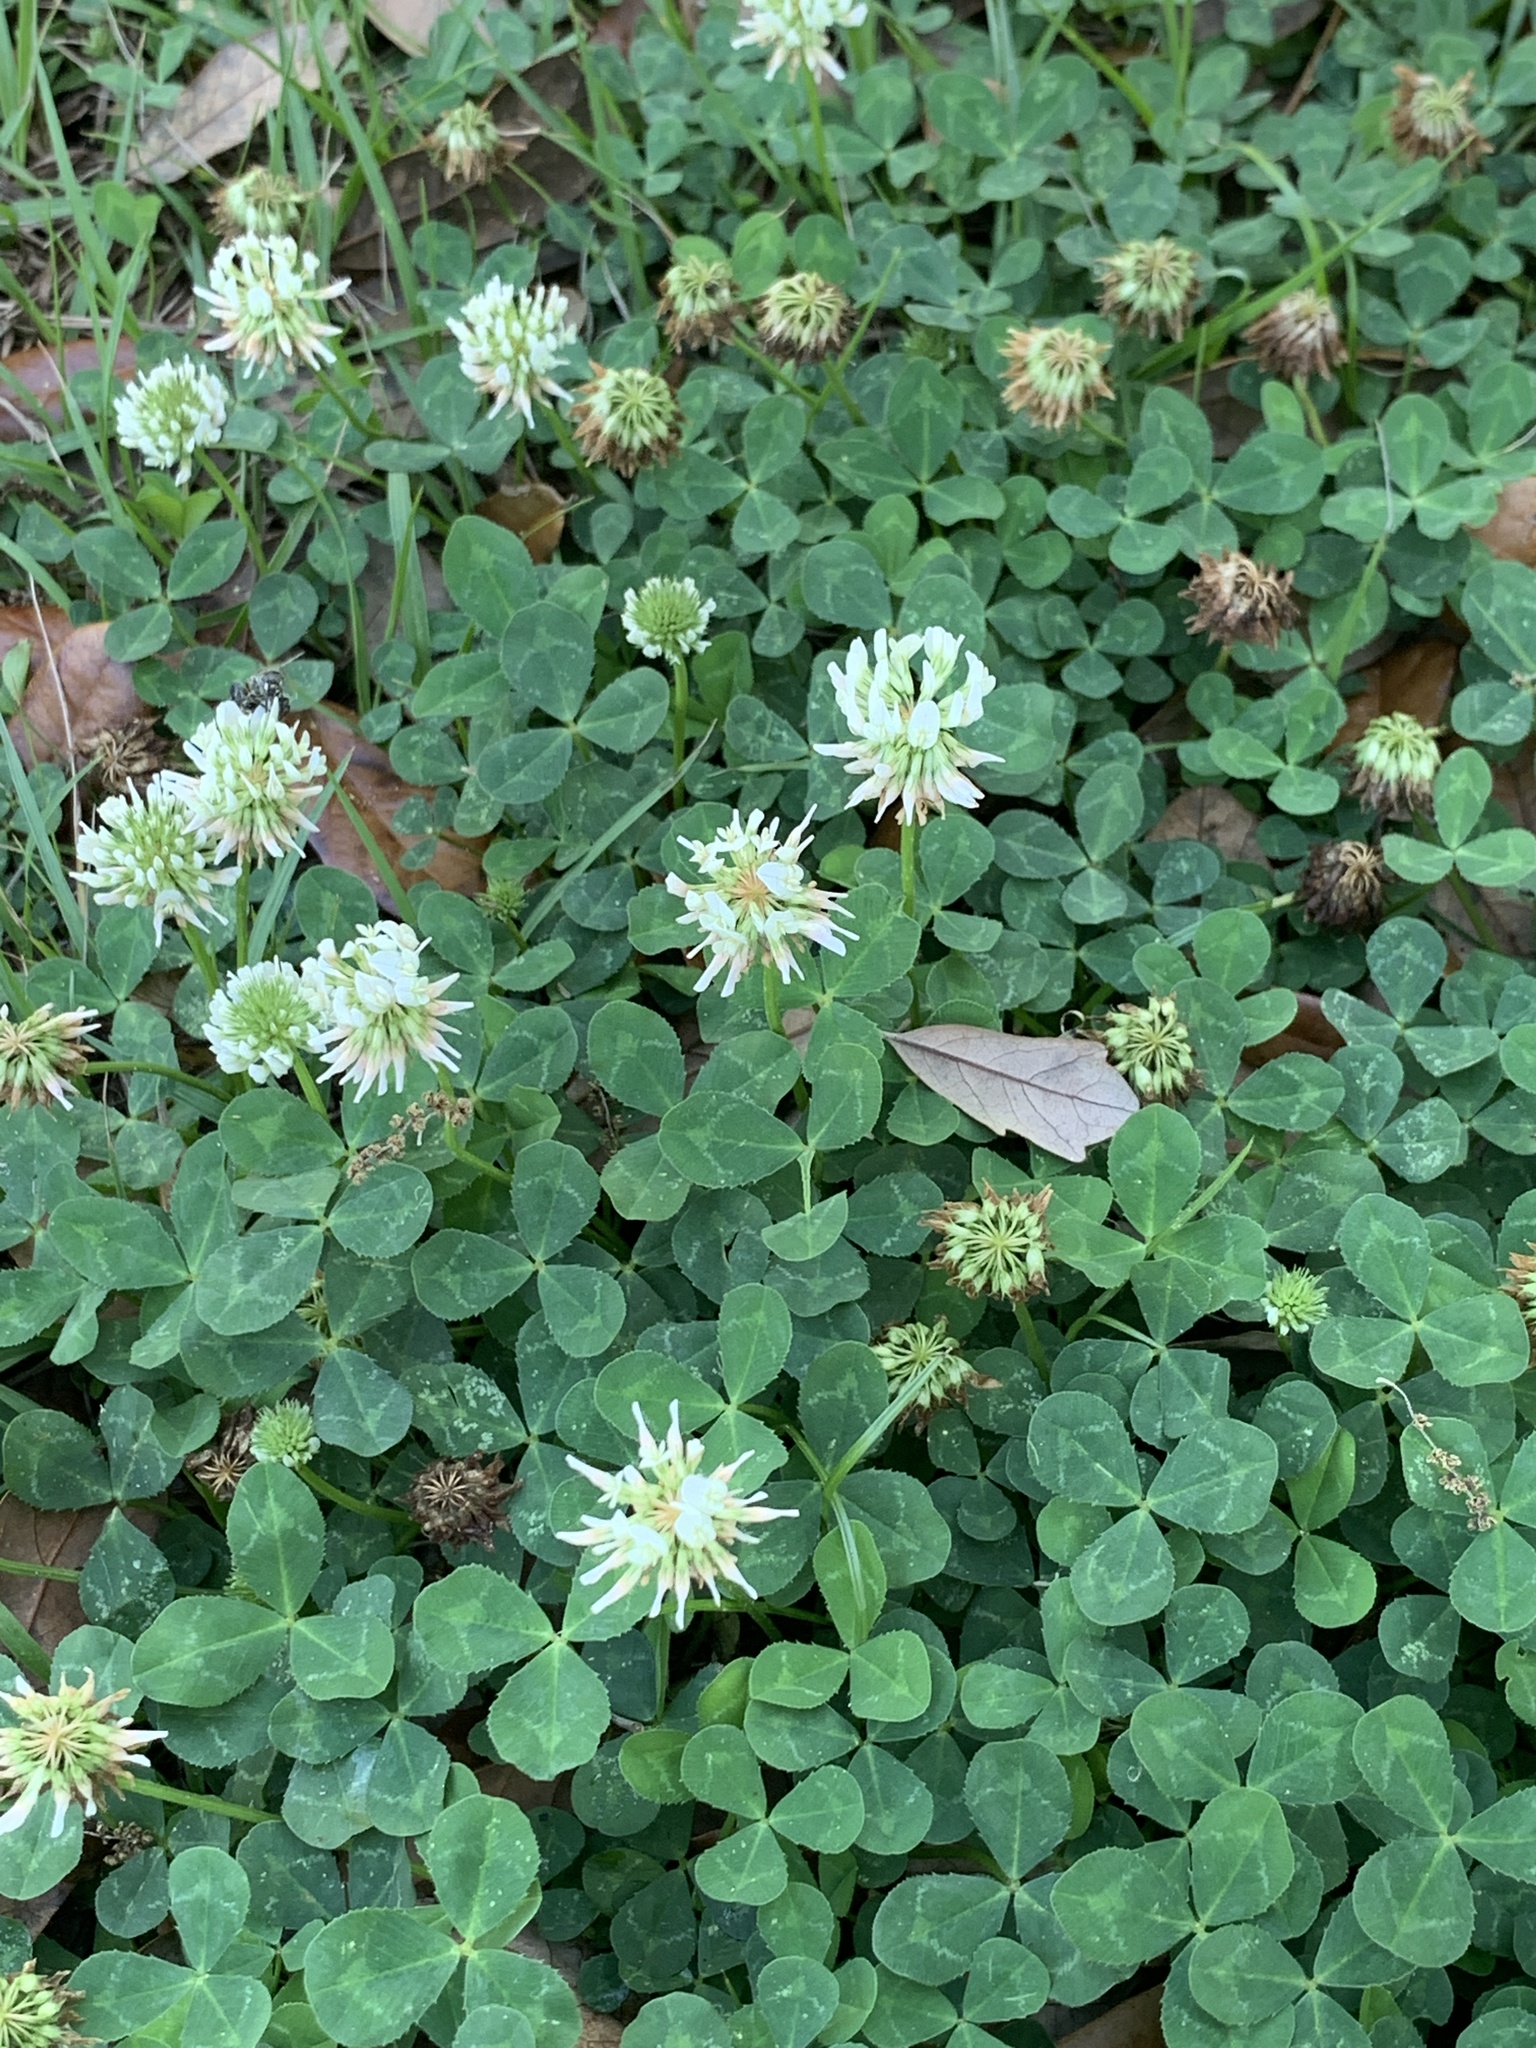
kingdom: Plantae
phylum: Tracheophyta
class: Magnoliopsida
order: Fabales
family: Fabaceae
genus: Trifolium
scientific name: Trifolium repens
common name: White clover
